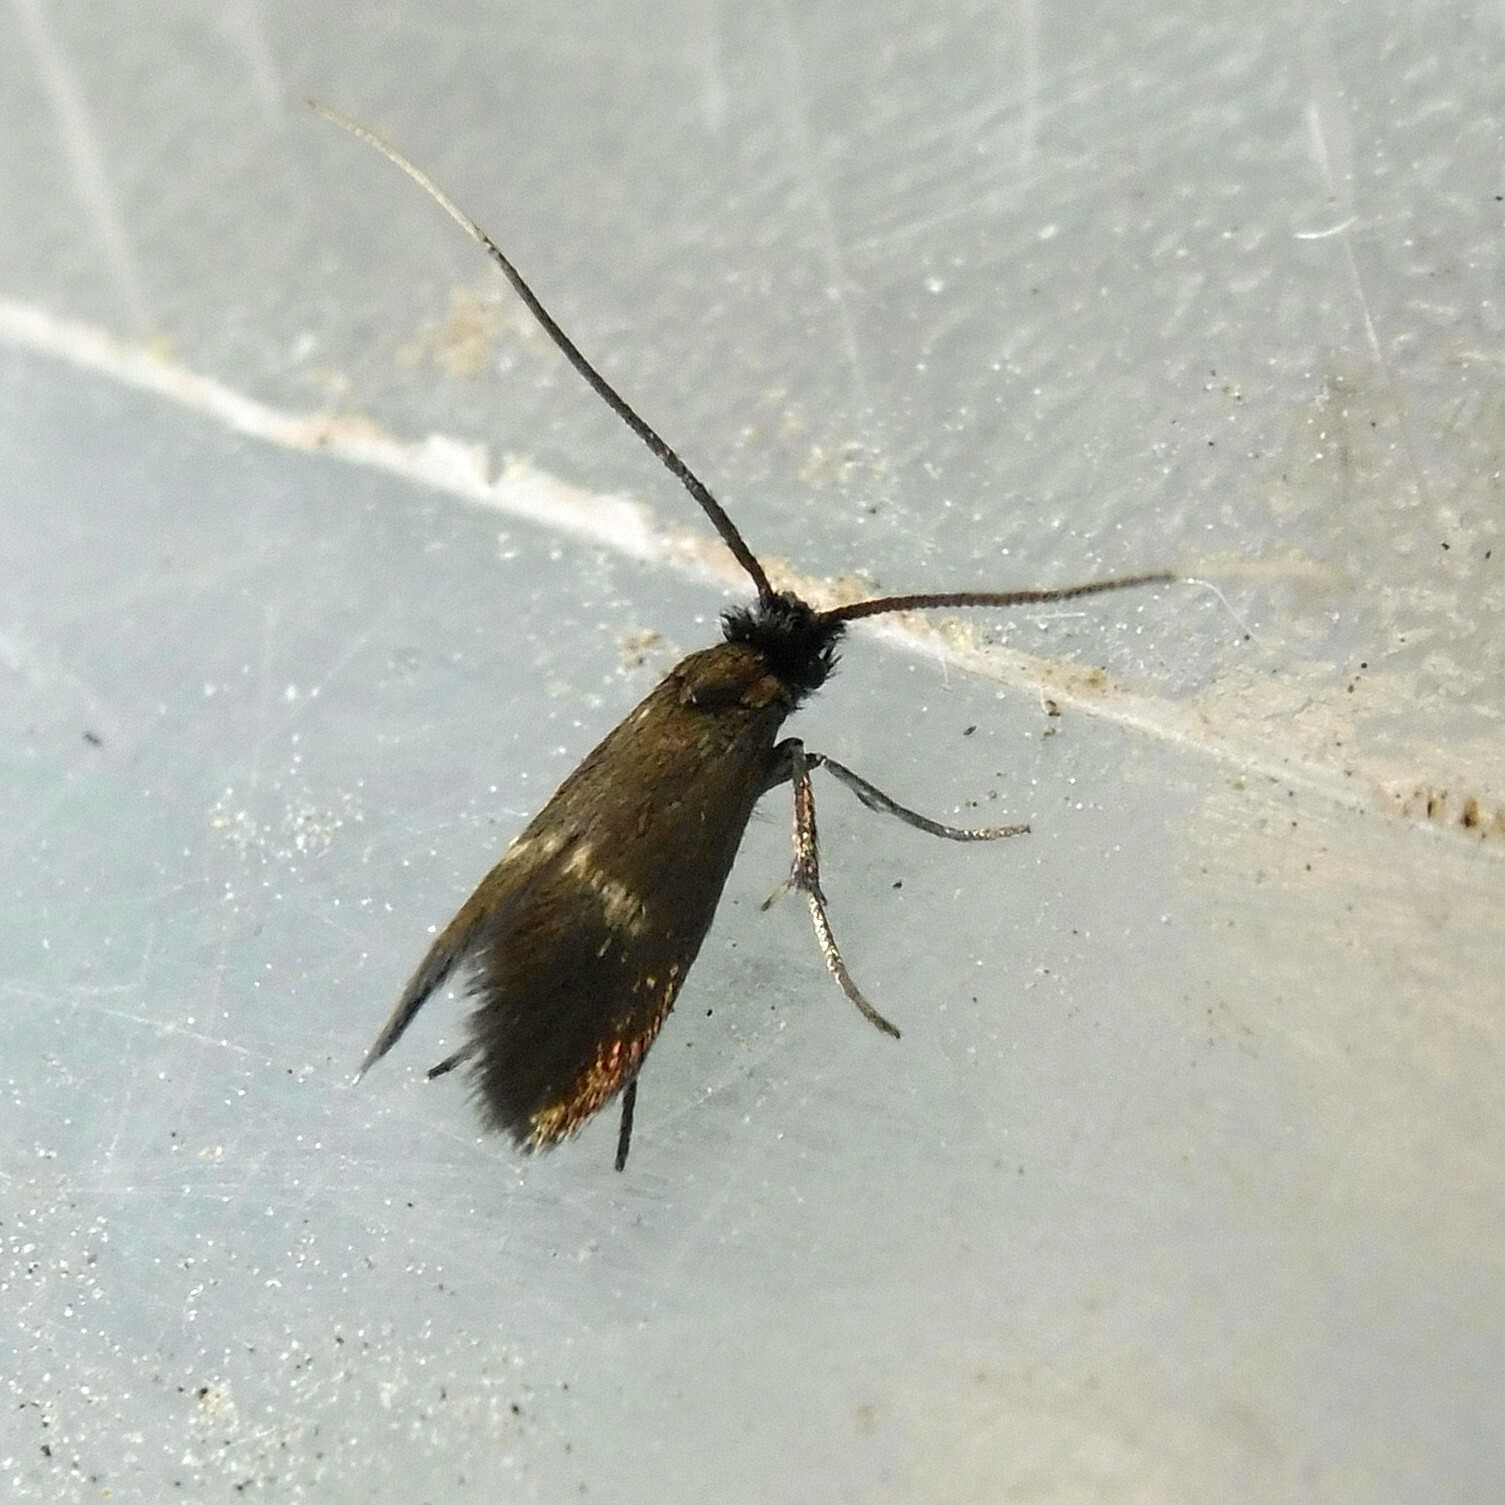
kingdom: Animalia
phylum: Arthropoda
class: Insecta
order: Lepidoptera
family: Adelidae
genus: Cauchas
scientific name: Cauchas fibulella
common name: Little long-horn
